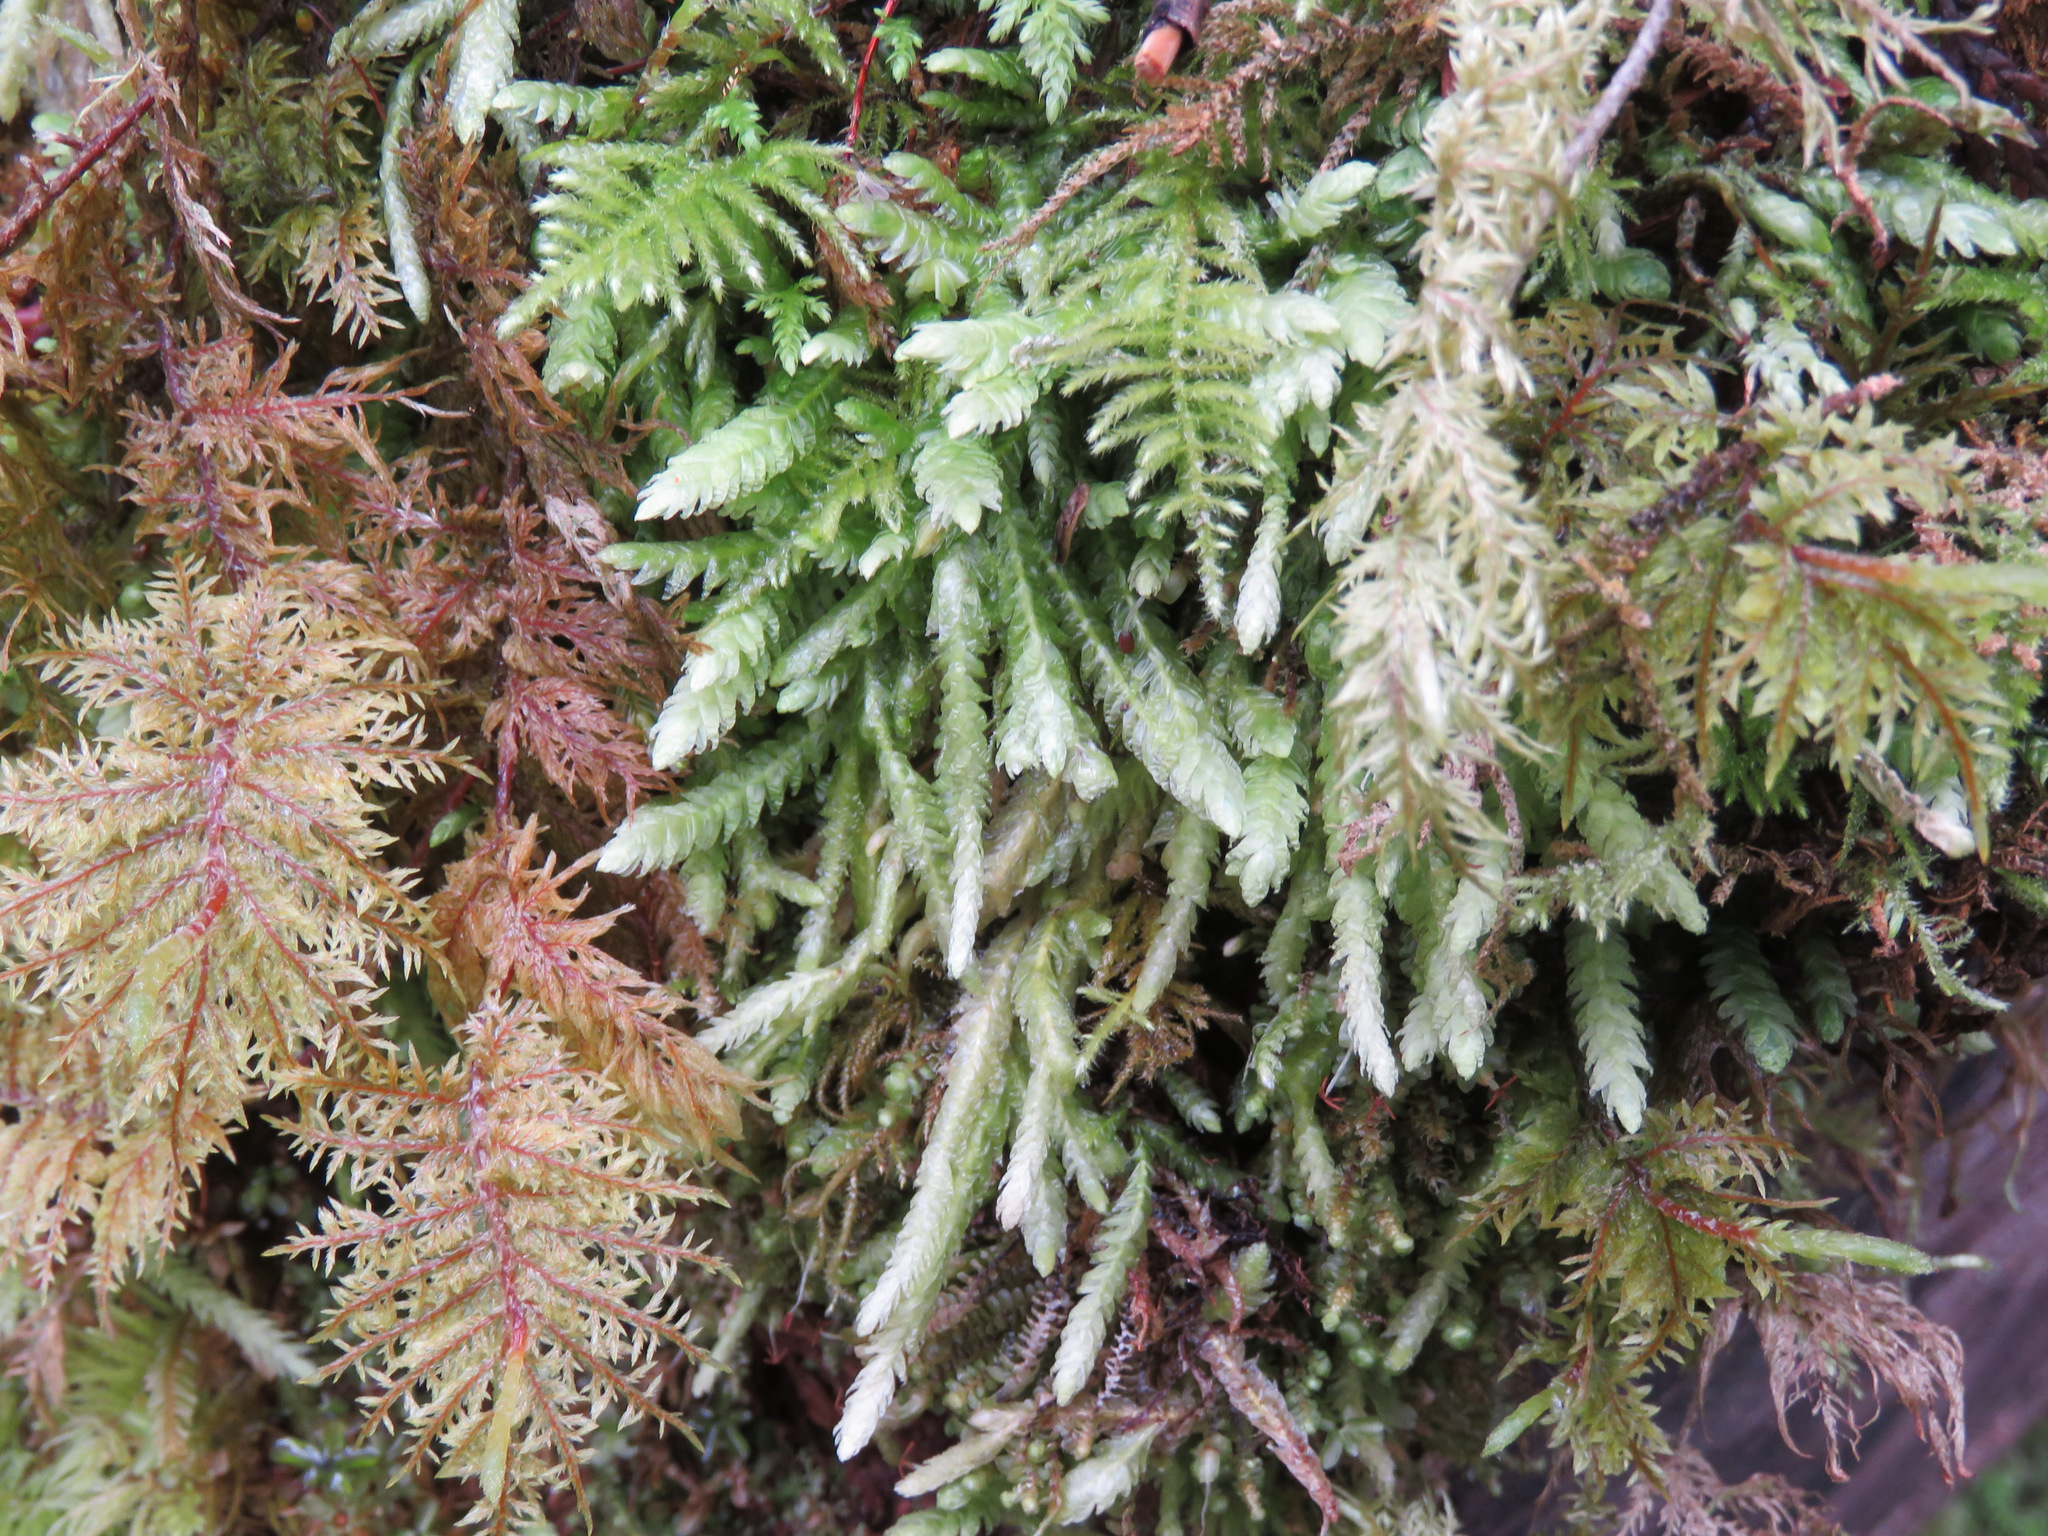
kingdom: Plantae
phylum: Bryophyta
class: Bryopsida
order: Hypnales
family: Plagiotheciaceae
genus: Plagiothecium
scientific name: Plagiothecium undulatum
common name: Waved silk-moss
